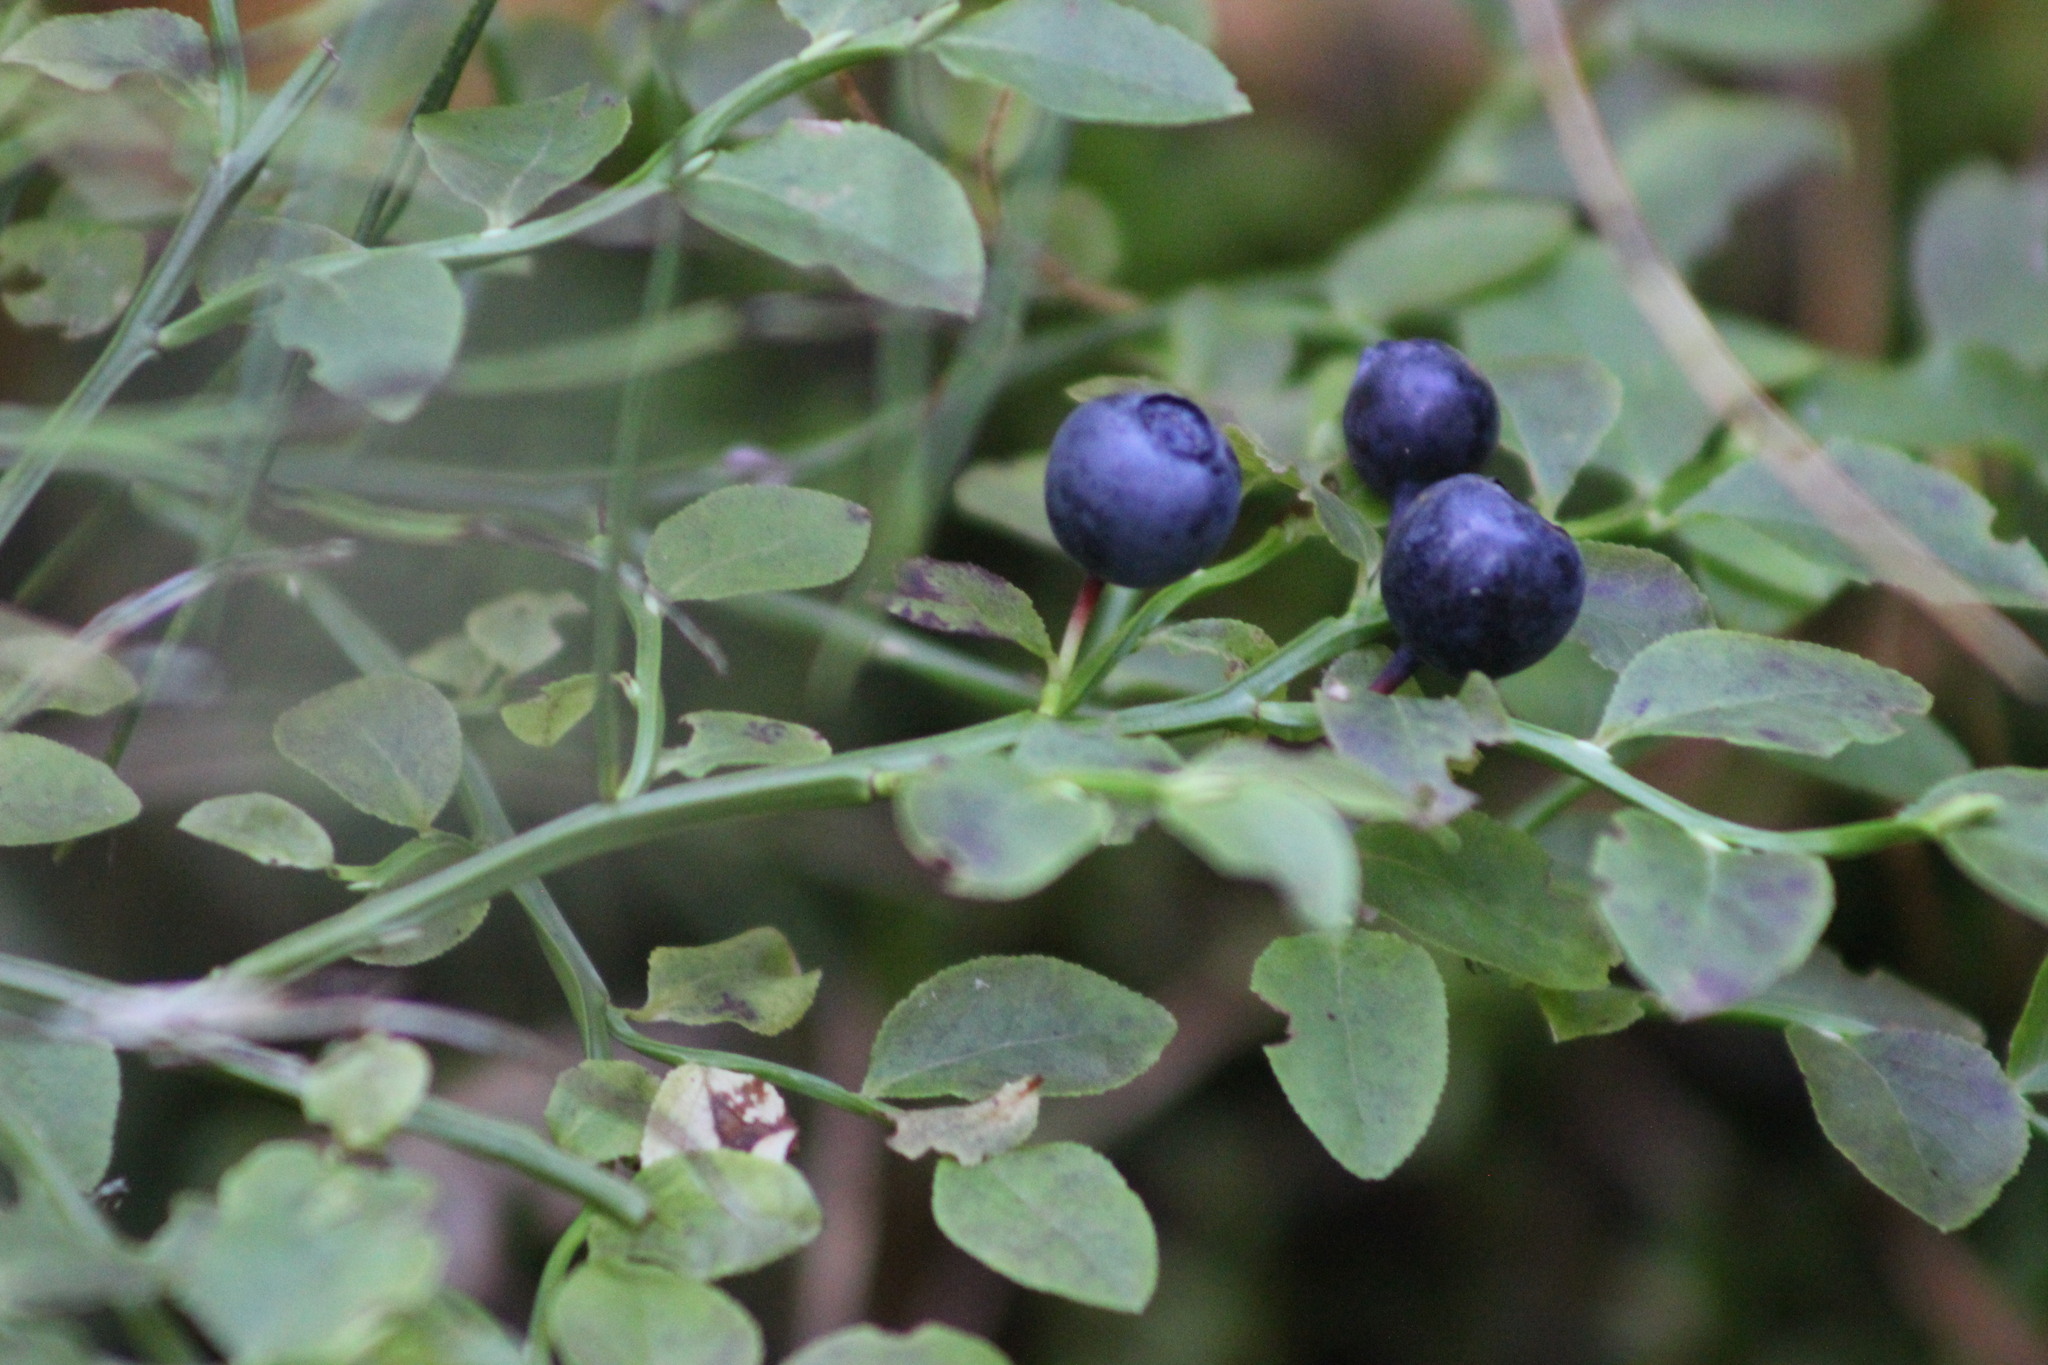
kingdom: Plantae
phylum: Tracheophyta
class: Magnoliopsida
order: Ericales
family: Ericaceae
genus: Vaccinium
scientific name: Vaccinium myrtillus
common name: Bilberry
